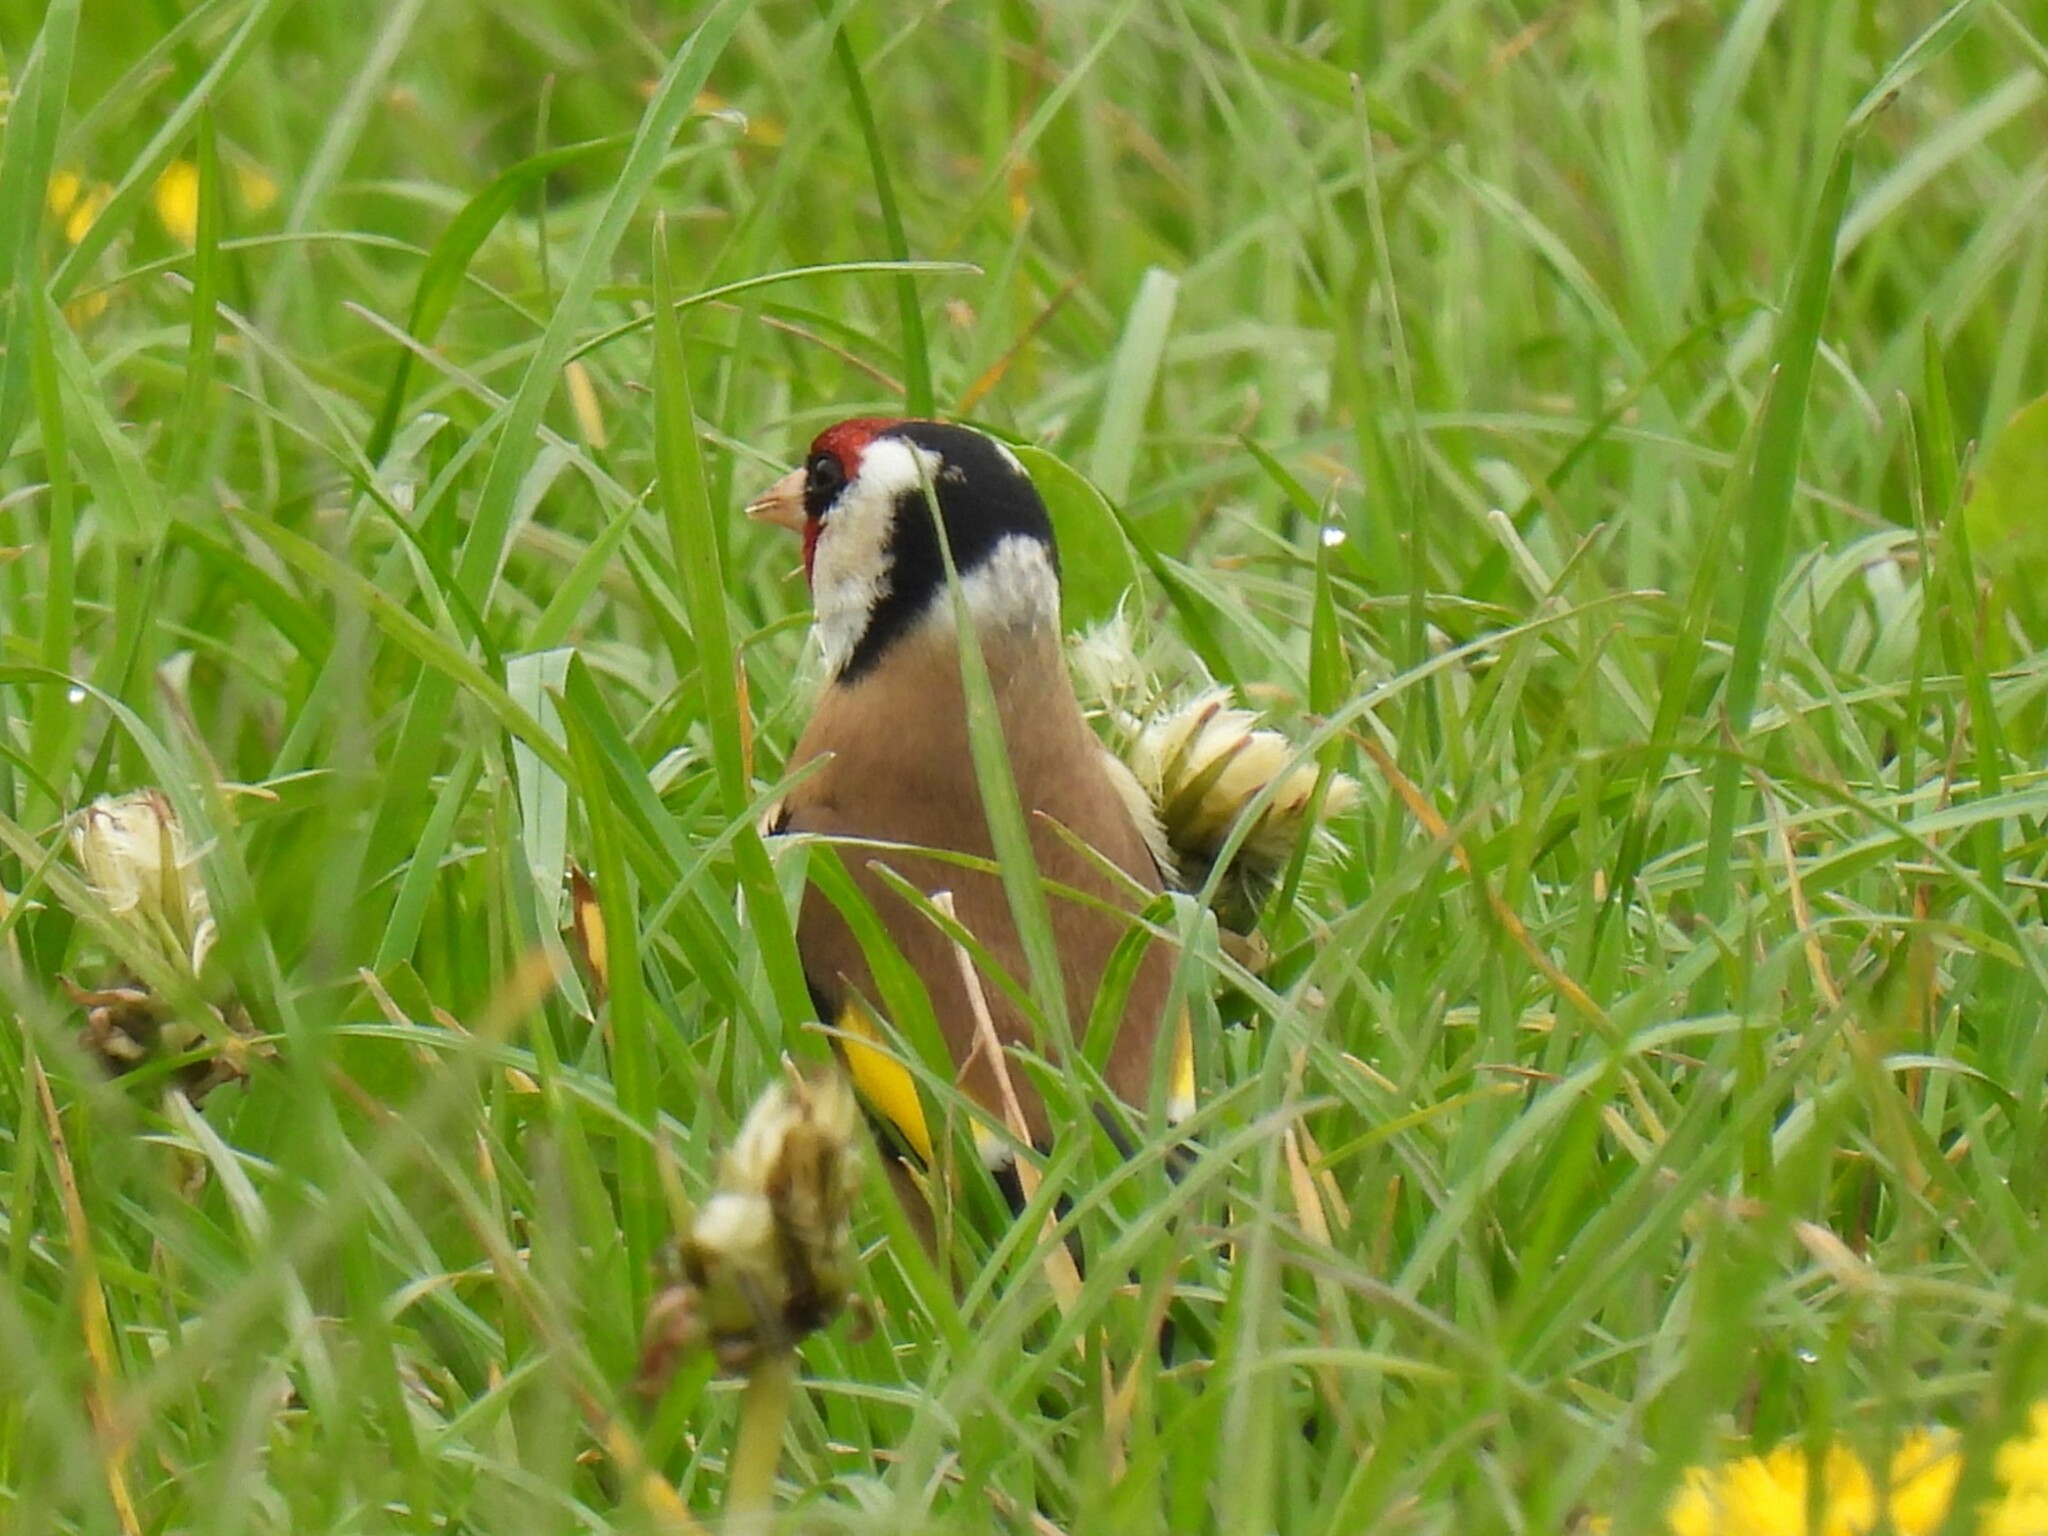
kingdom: Animalia
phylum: Chordata
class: Aves
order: Passeriformes
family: Fringillidae
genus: Carduelis
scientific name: Carduelis carduelis
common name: European goldfinch
